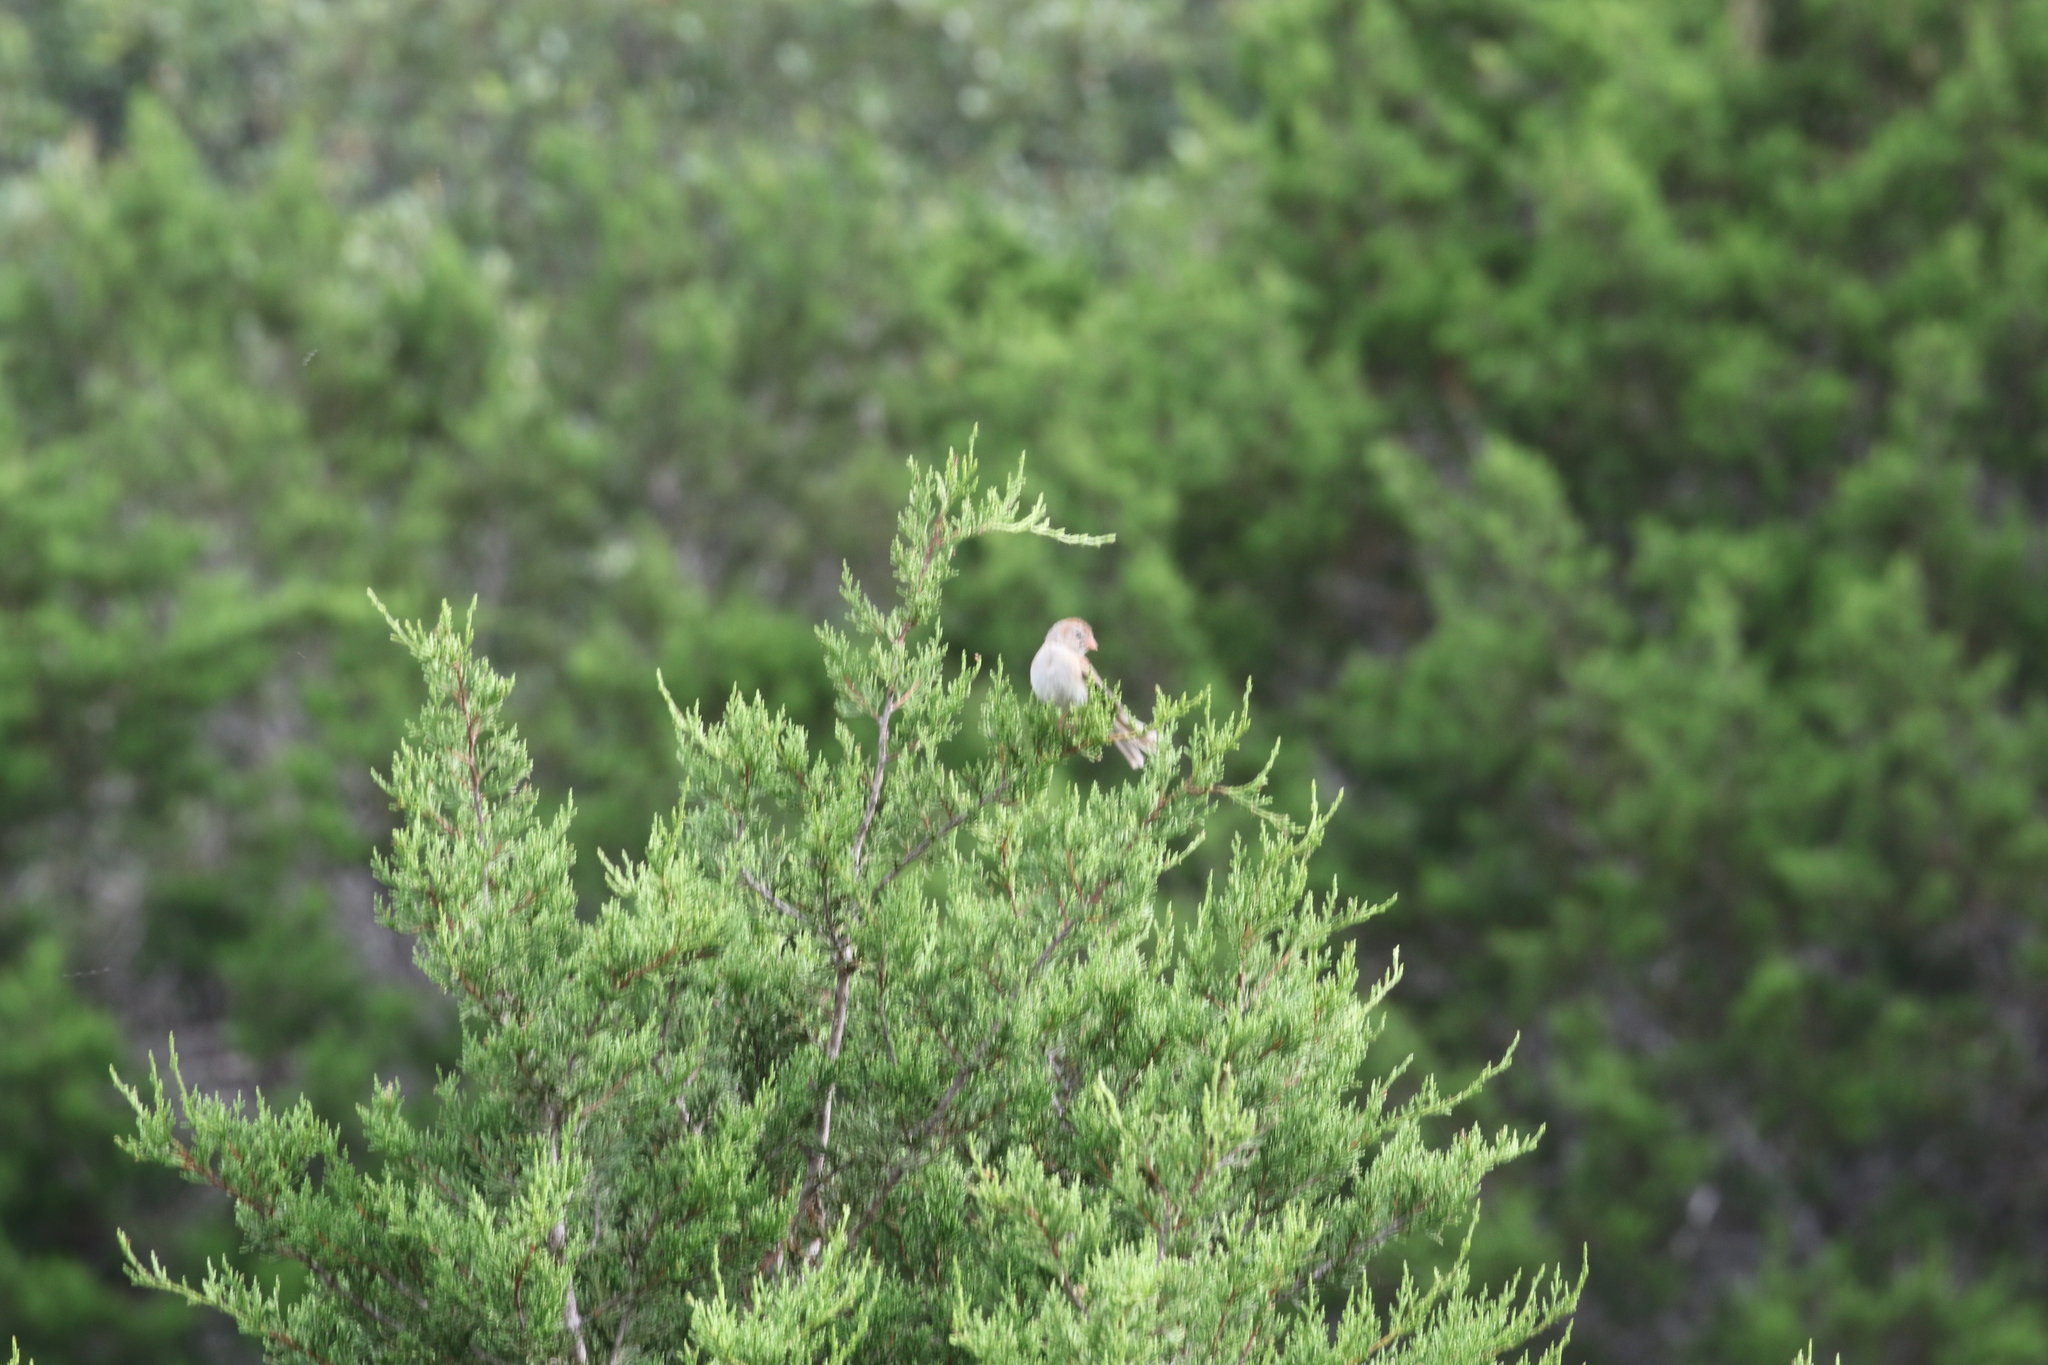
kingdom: Animalia
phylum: Chordata
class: Aves
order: Passeriformes
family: Passerellidae
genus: Spizella
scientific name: Spizella pusilla
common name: Field sparrow
